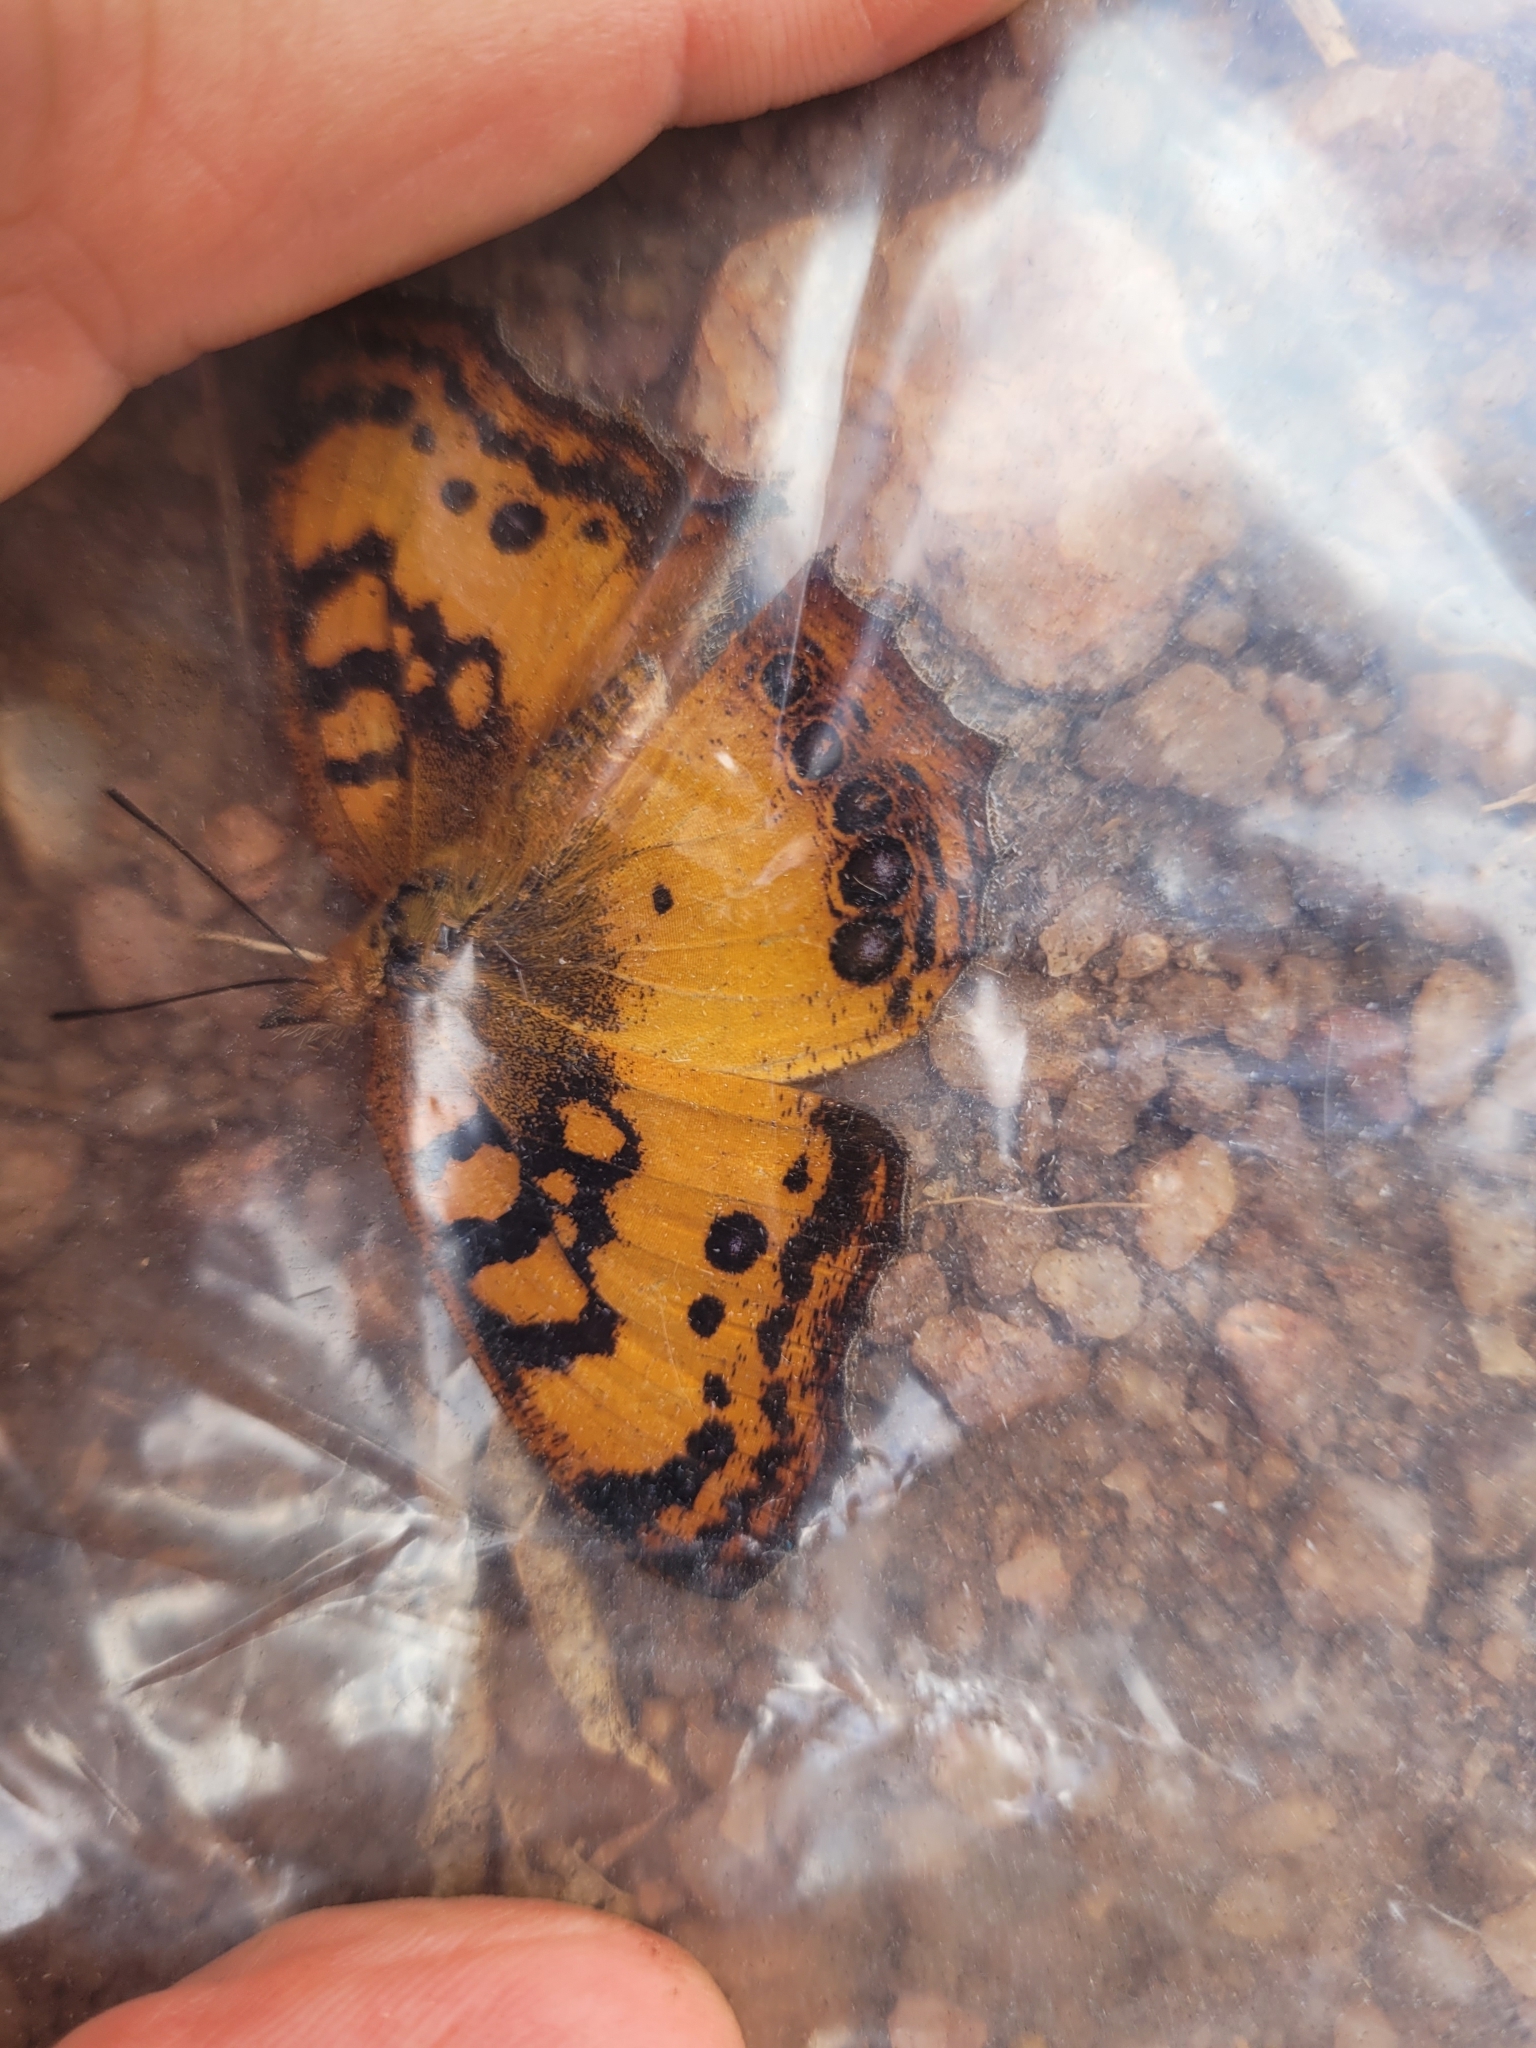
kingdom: Animalia
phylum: Arthropoda
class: Insecta
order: Lepidoptera
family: Nymphalidae
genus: Catacroptera
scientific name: Catacroptera cloanthe
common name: Pirate
